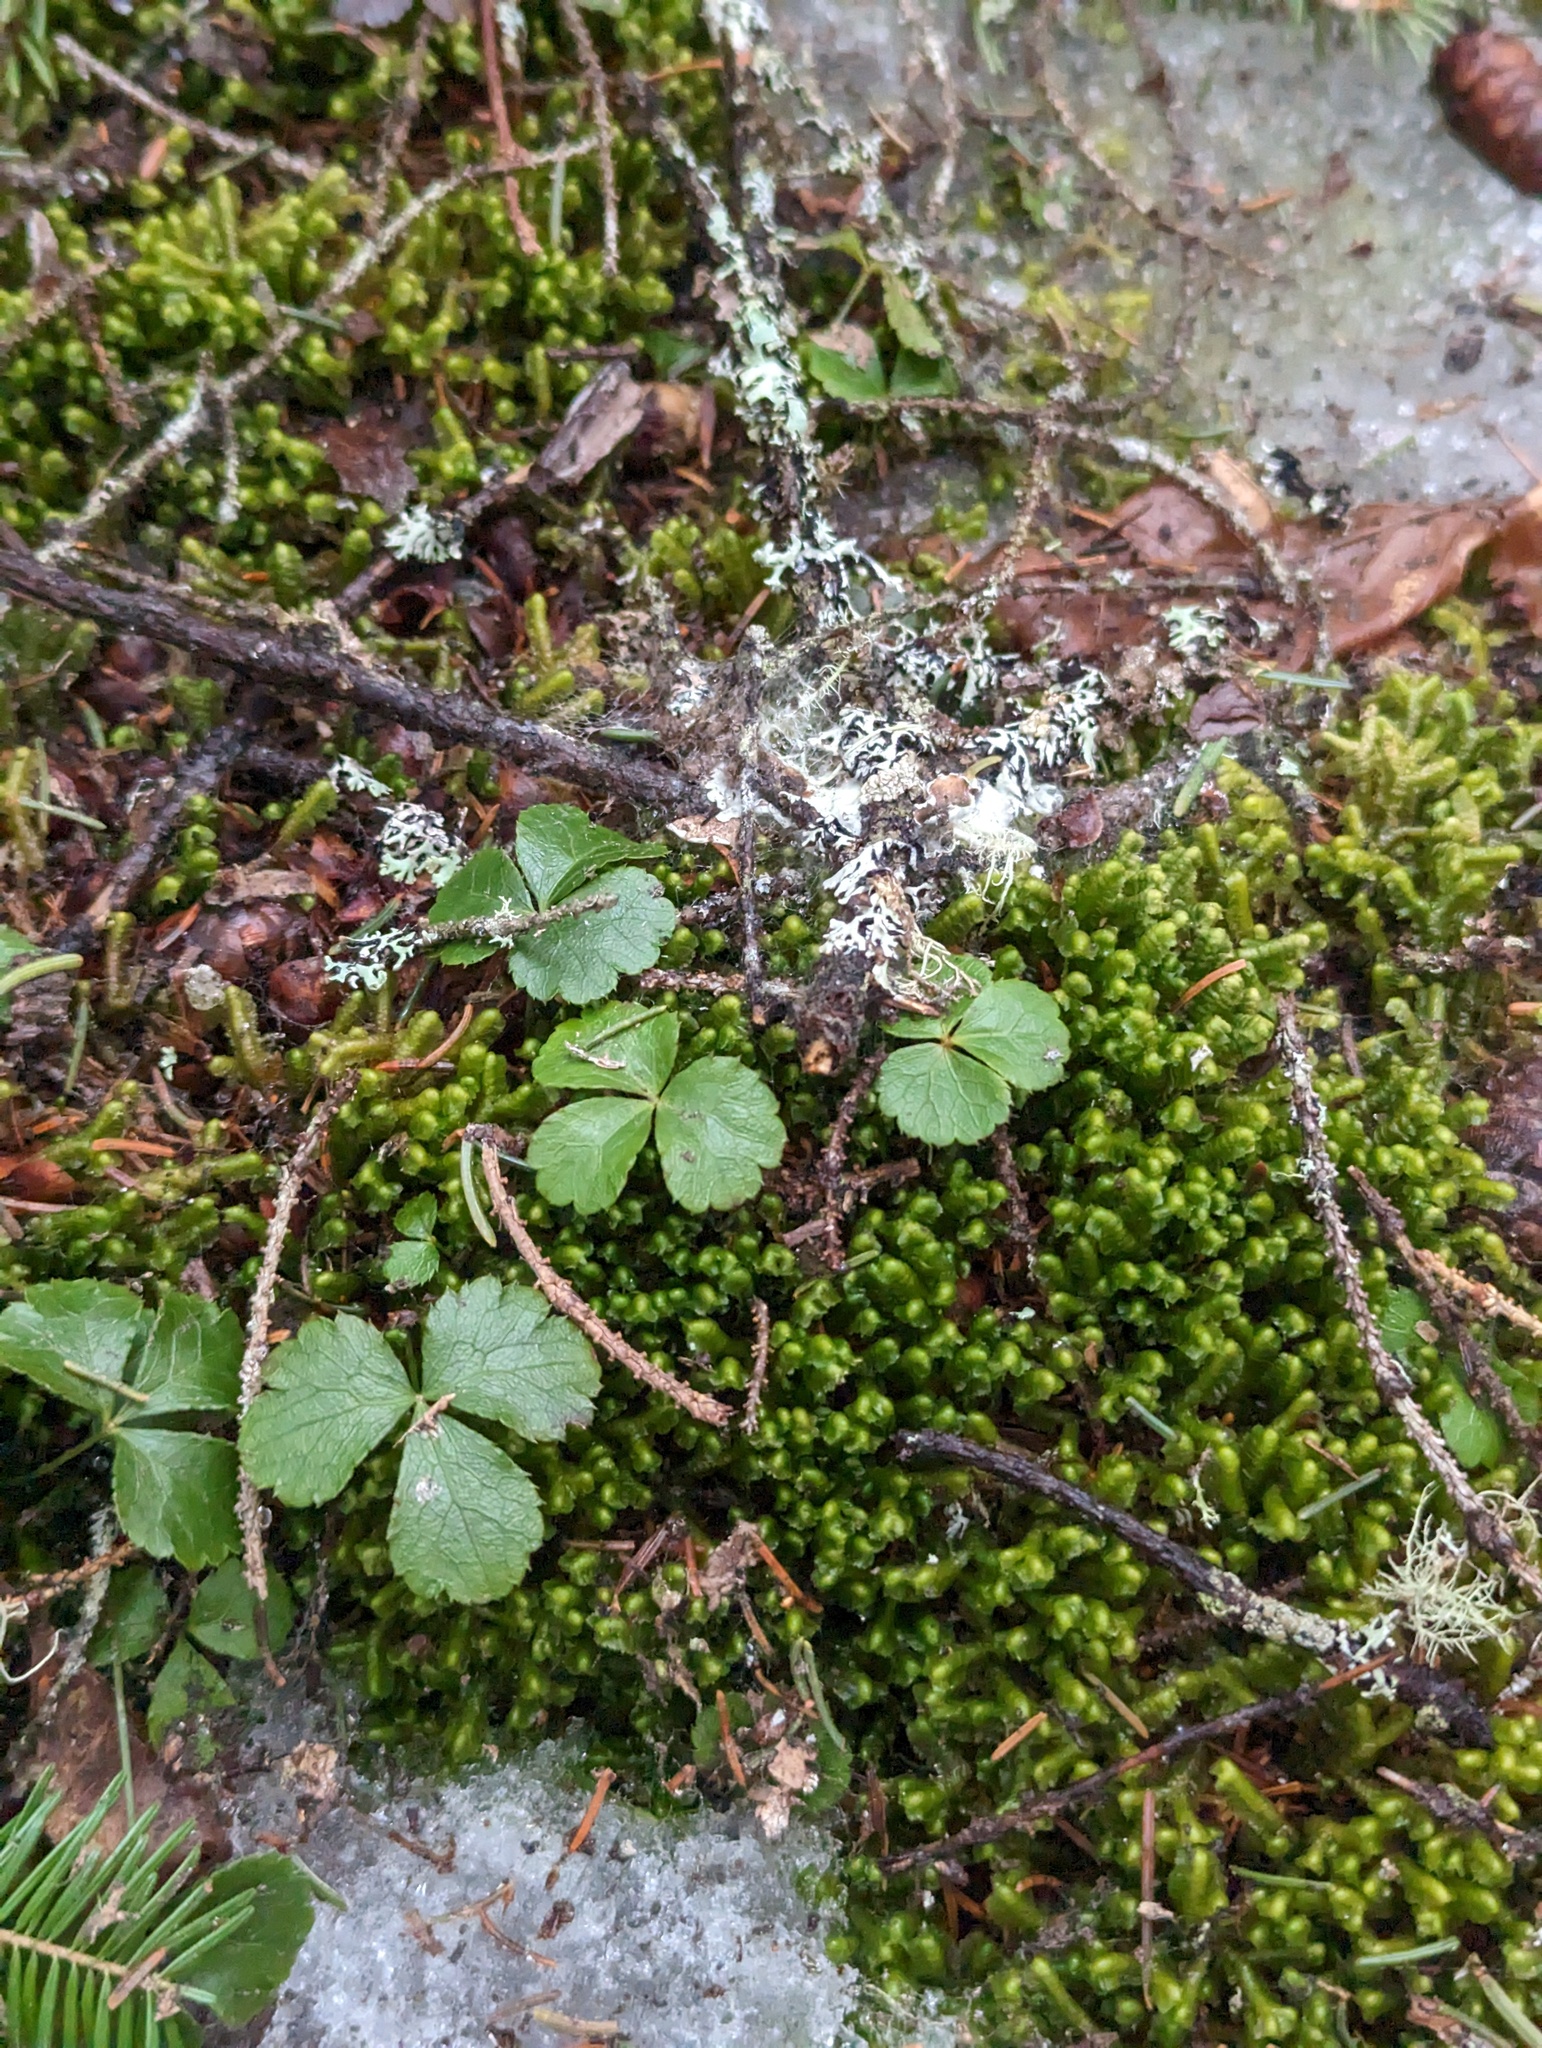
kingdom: Plantae
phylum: Tracheophyta
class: Magnoliopsida
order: Ranunculales
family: Ranunculaceae
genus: Coptis
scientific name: Coptis trifolia
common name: Canker-root
